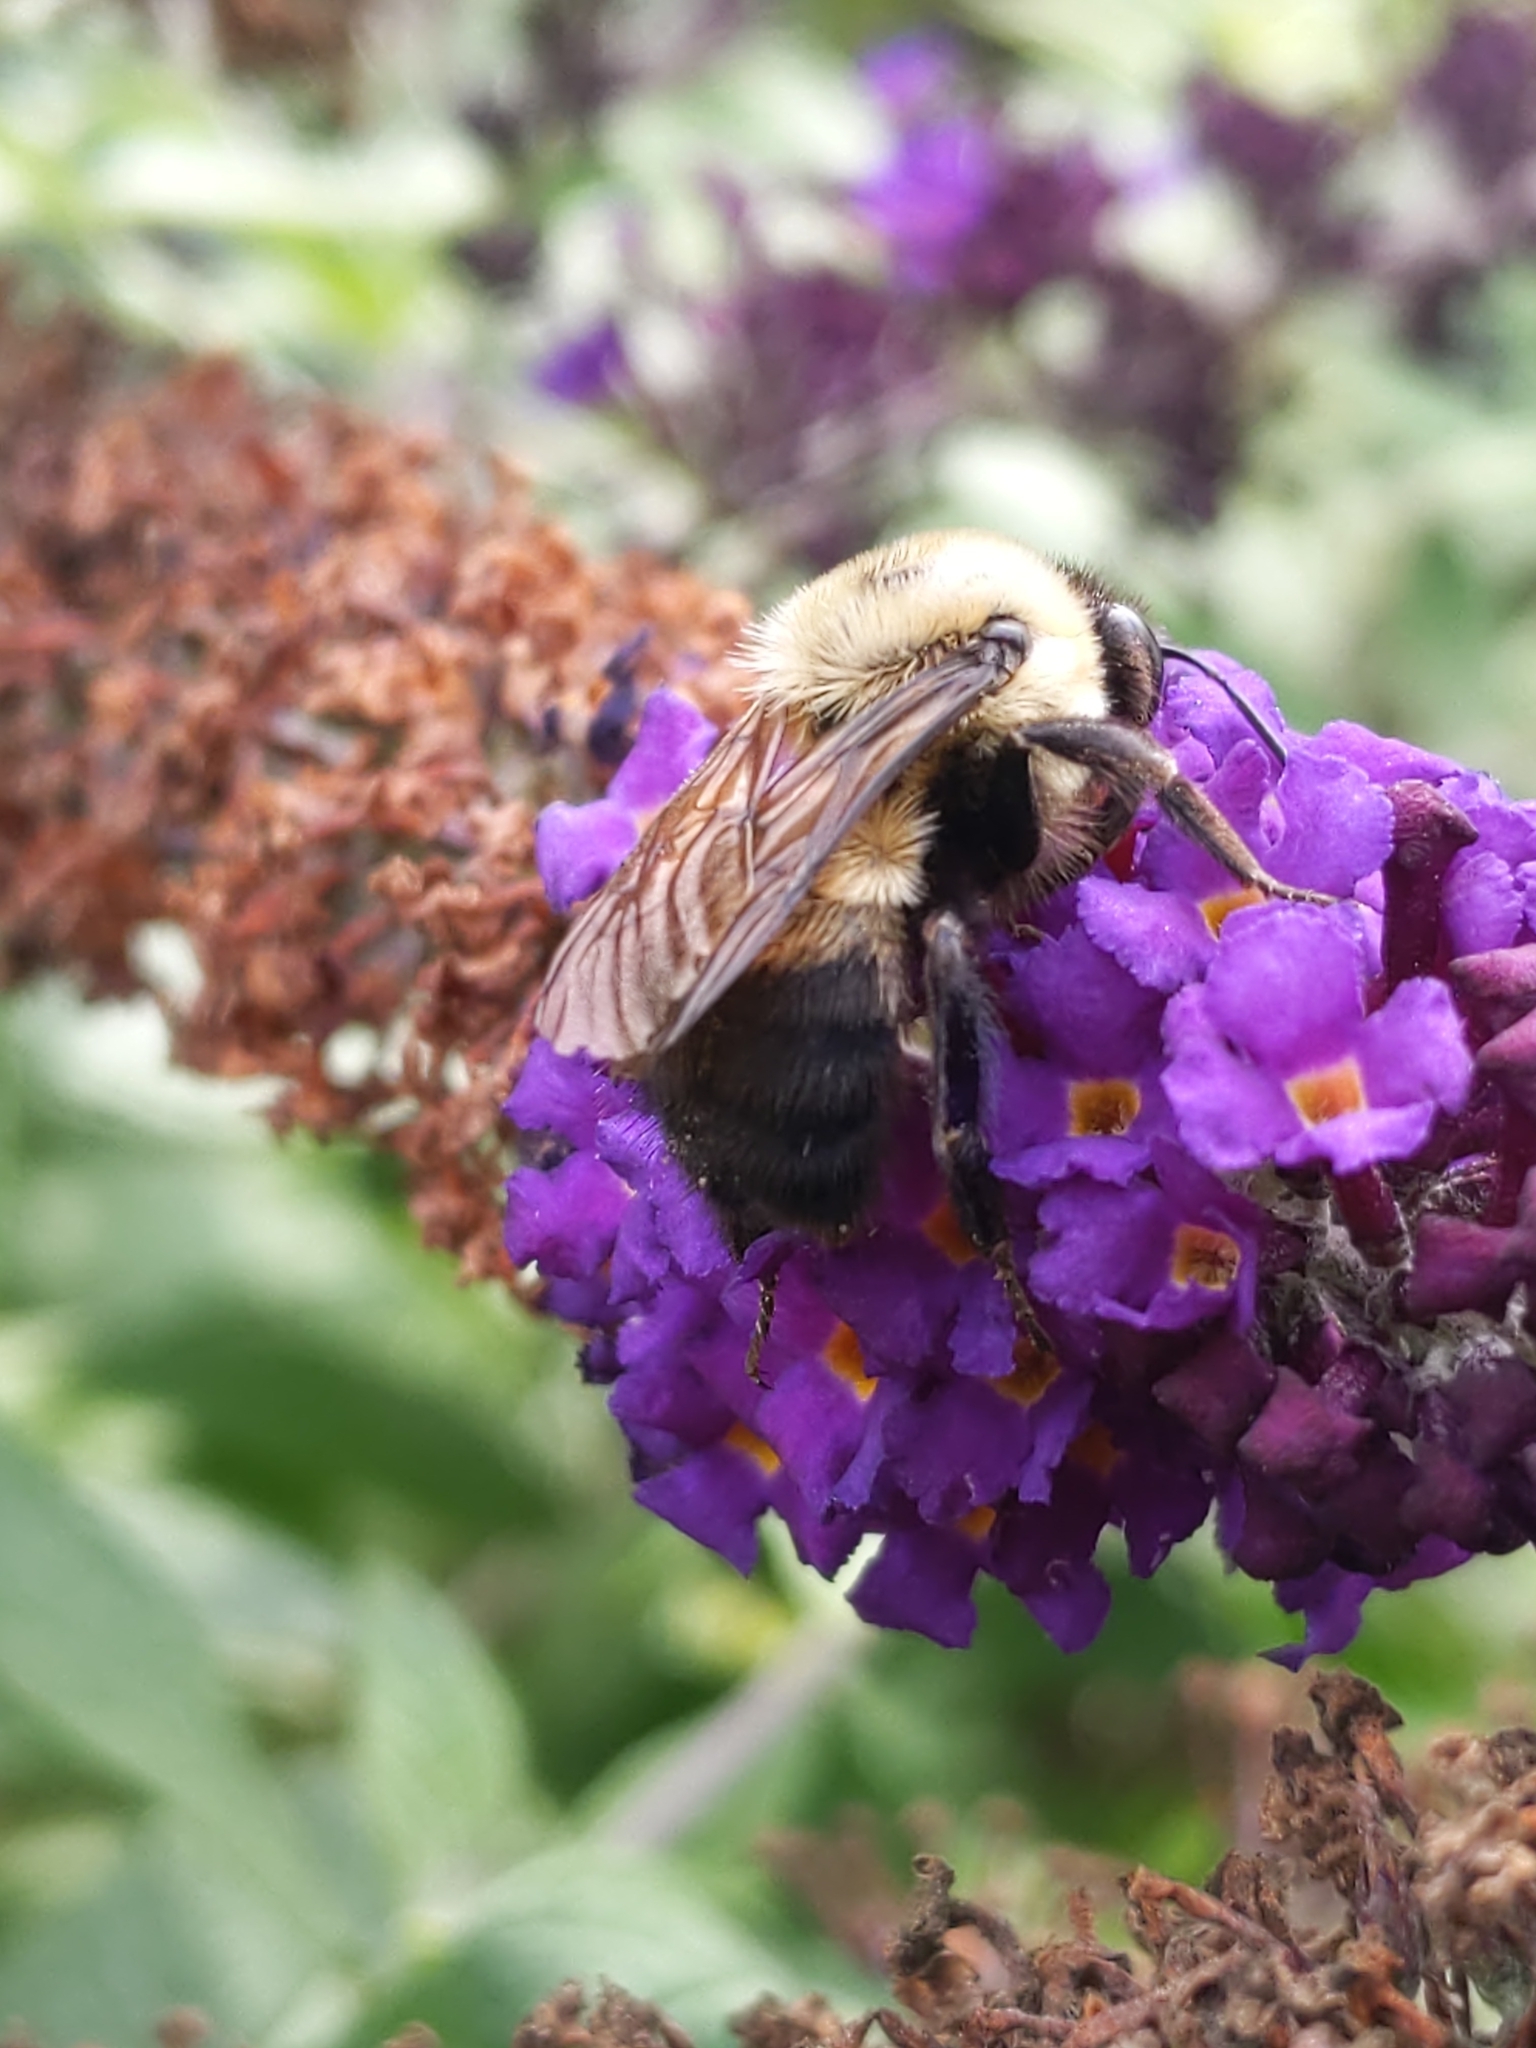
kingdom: Animalia
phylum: Arthropoda
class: Insecta
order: Hymenoptera
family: Apidae
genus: Bombus
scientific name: Bombus griseocollis
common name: Brown-belted bumble bee
